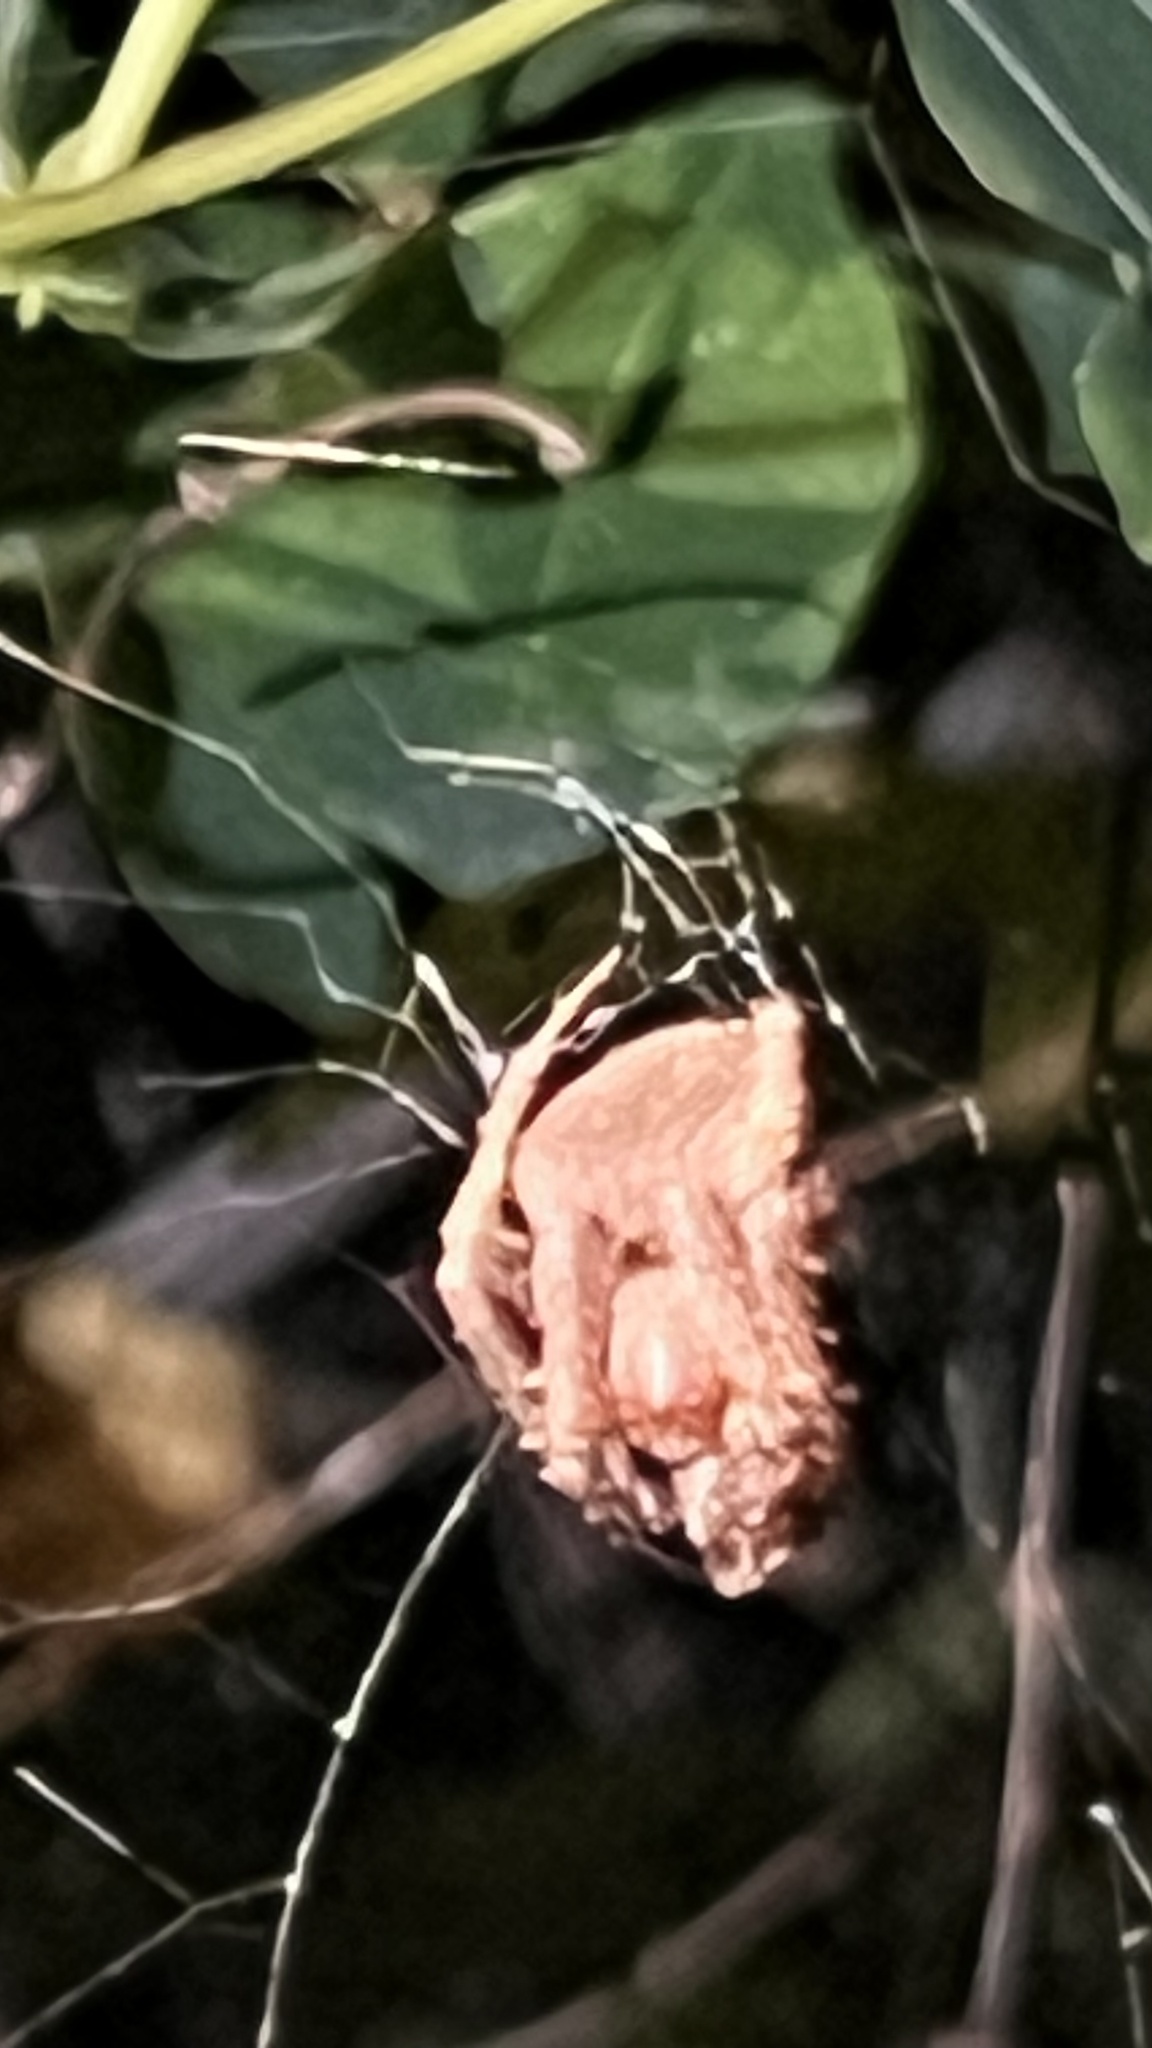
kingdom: Animalia
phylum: Arthropoda
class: Arachnida
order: Araneae
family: Araneidae
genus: Neoscona
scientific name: Neoscona punctigera
